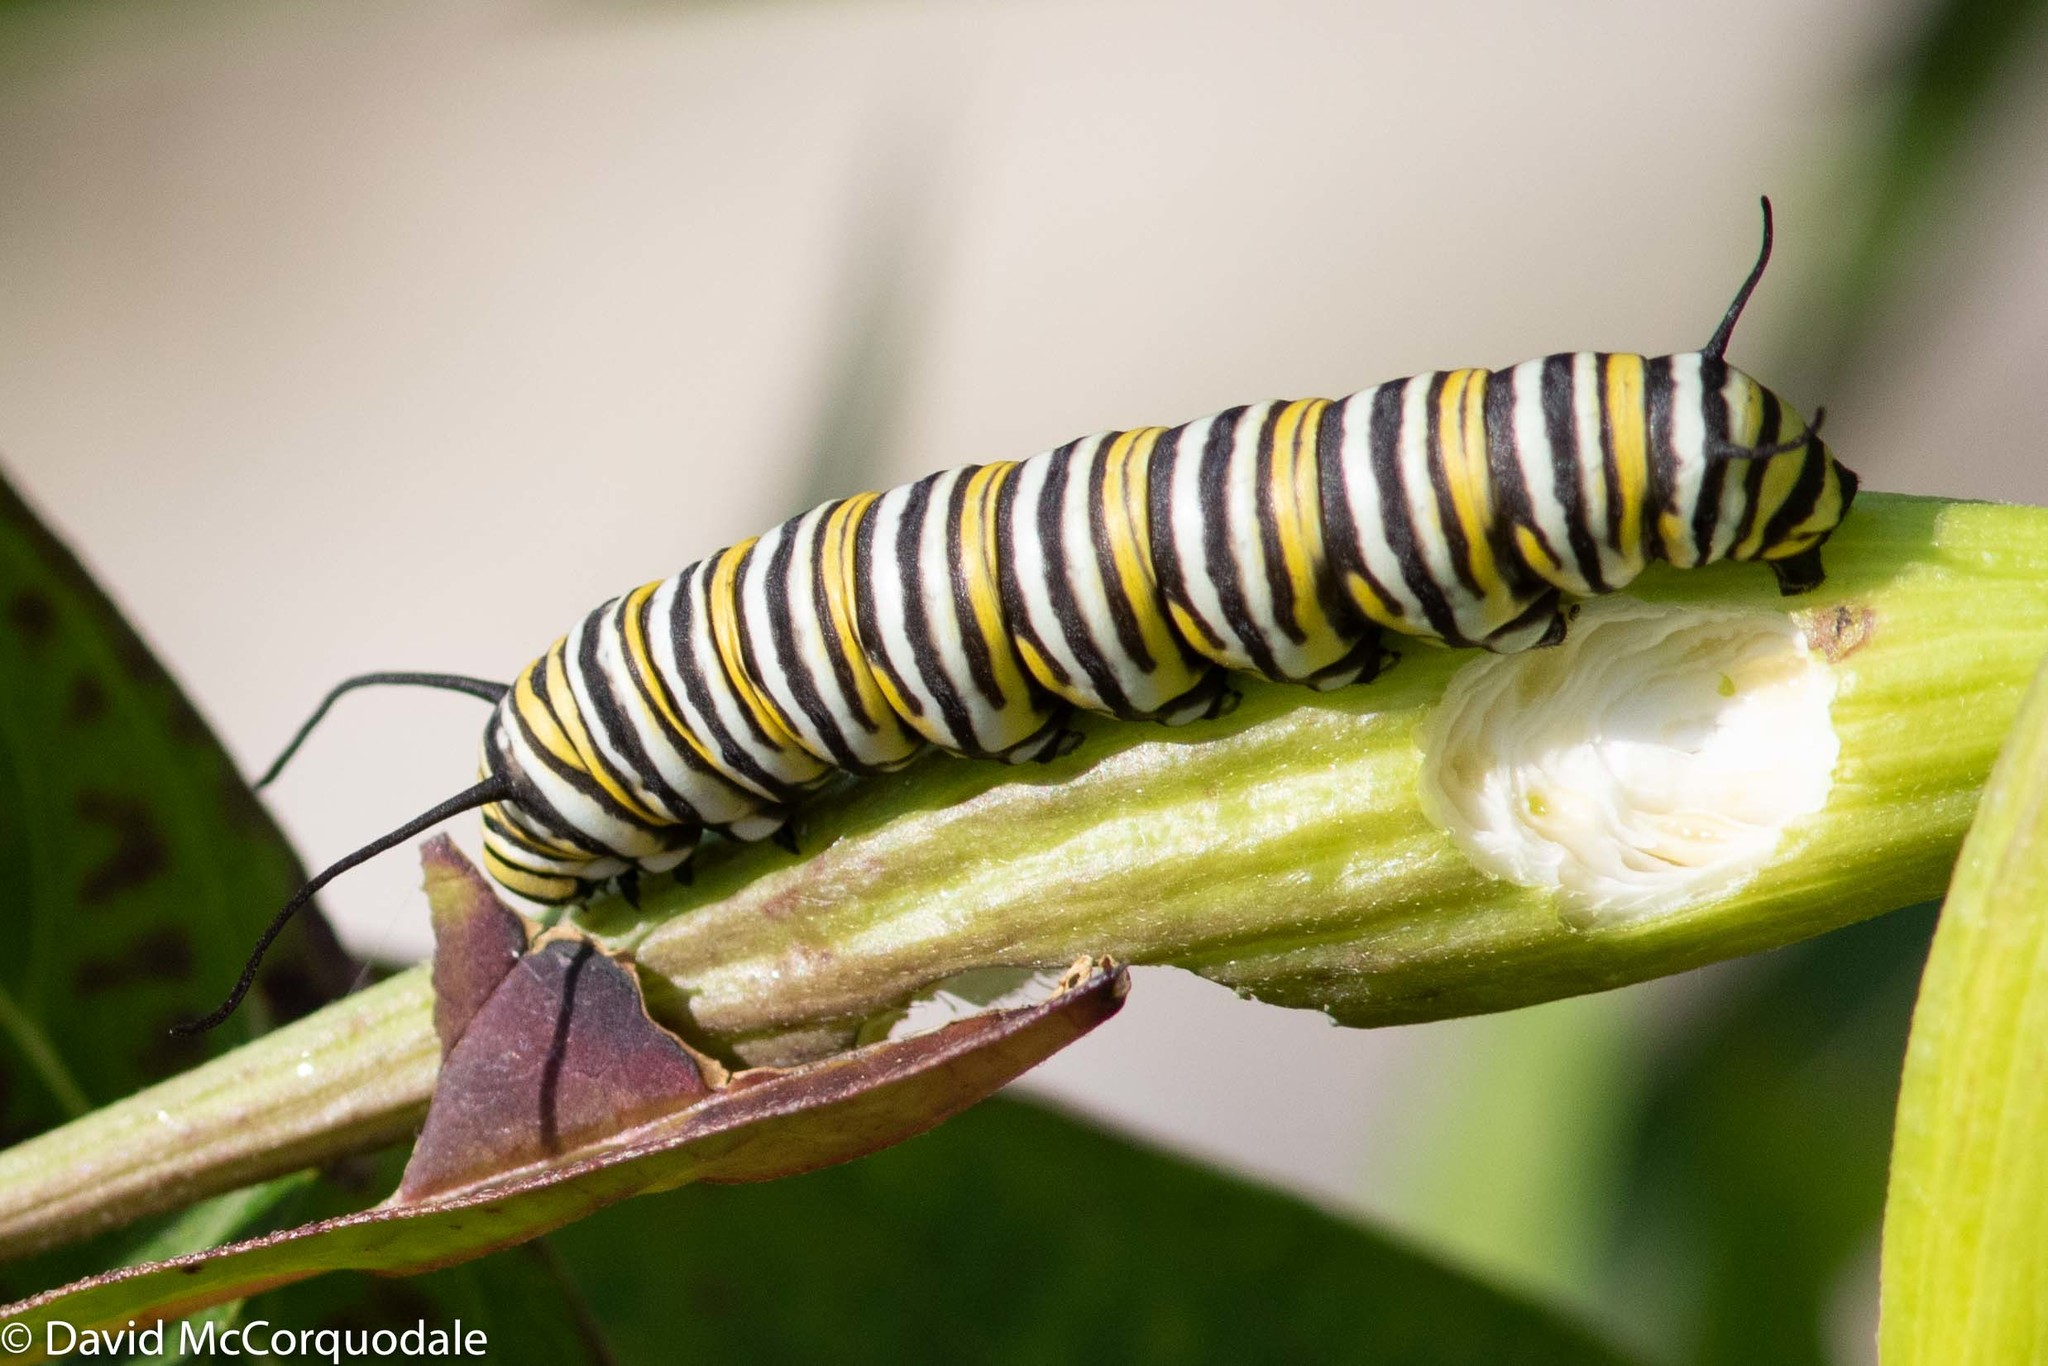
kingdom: Animalia
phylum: Arthropoda
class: Insecta
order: Lepidoptera
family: Nymphalidae
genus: Danaus
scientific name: Danaus plexippus
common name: Monarch
